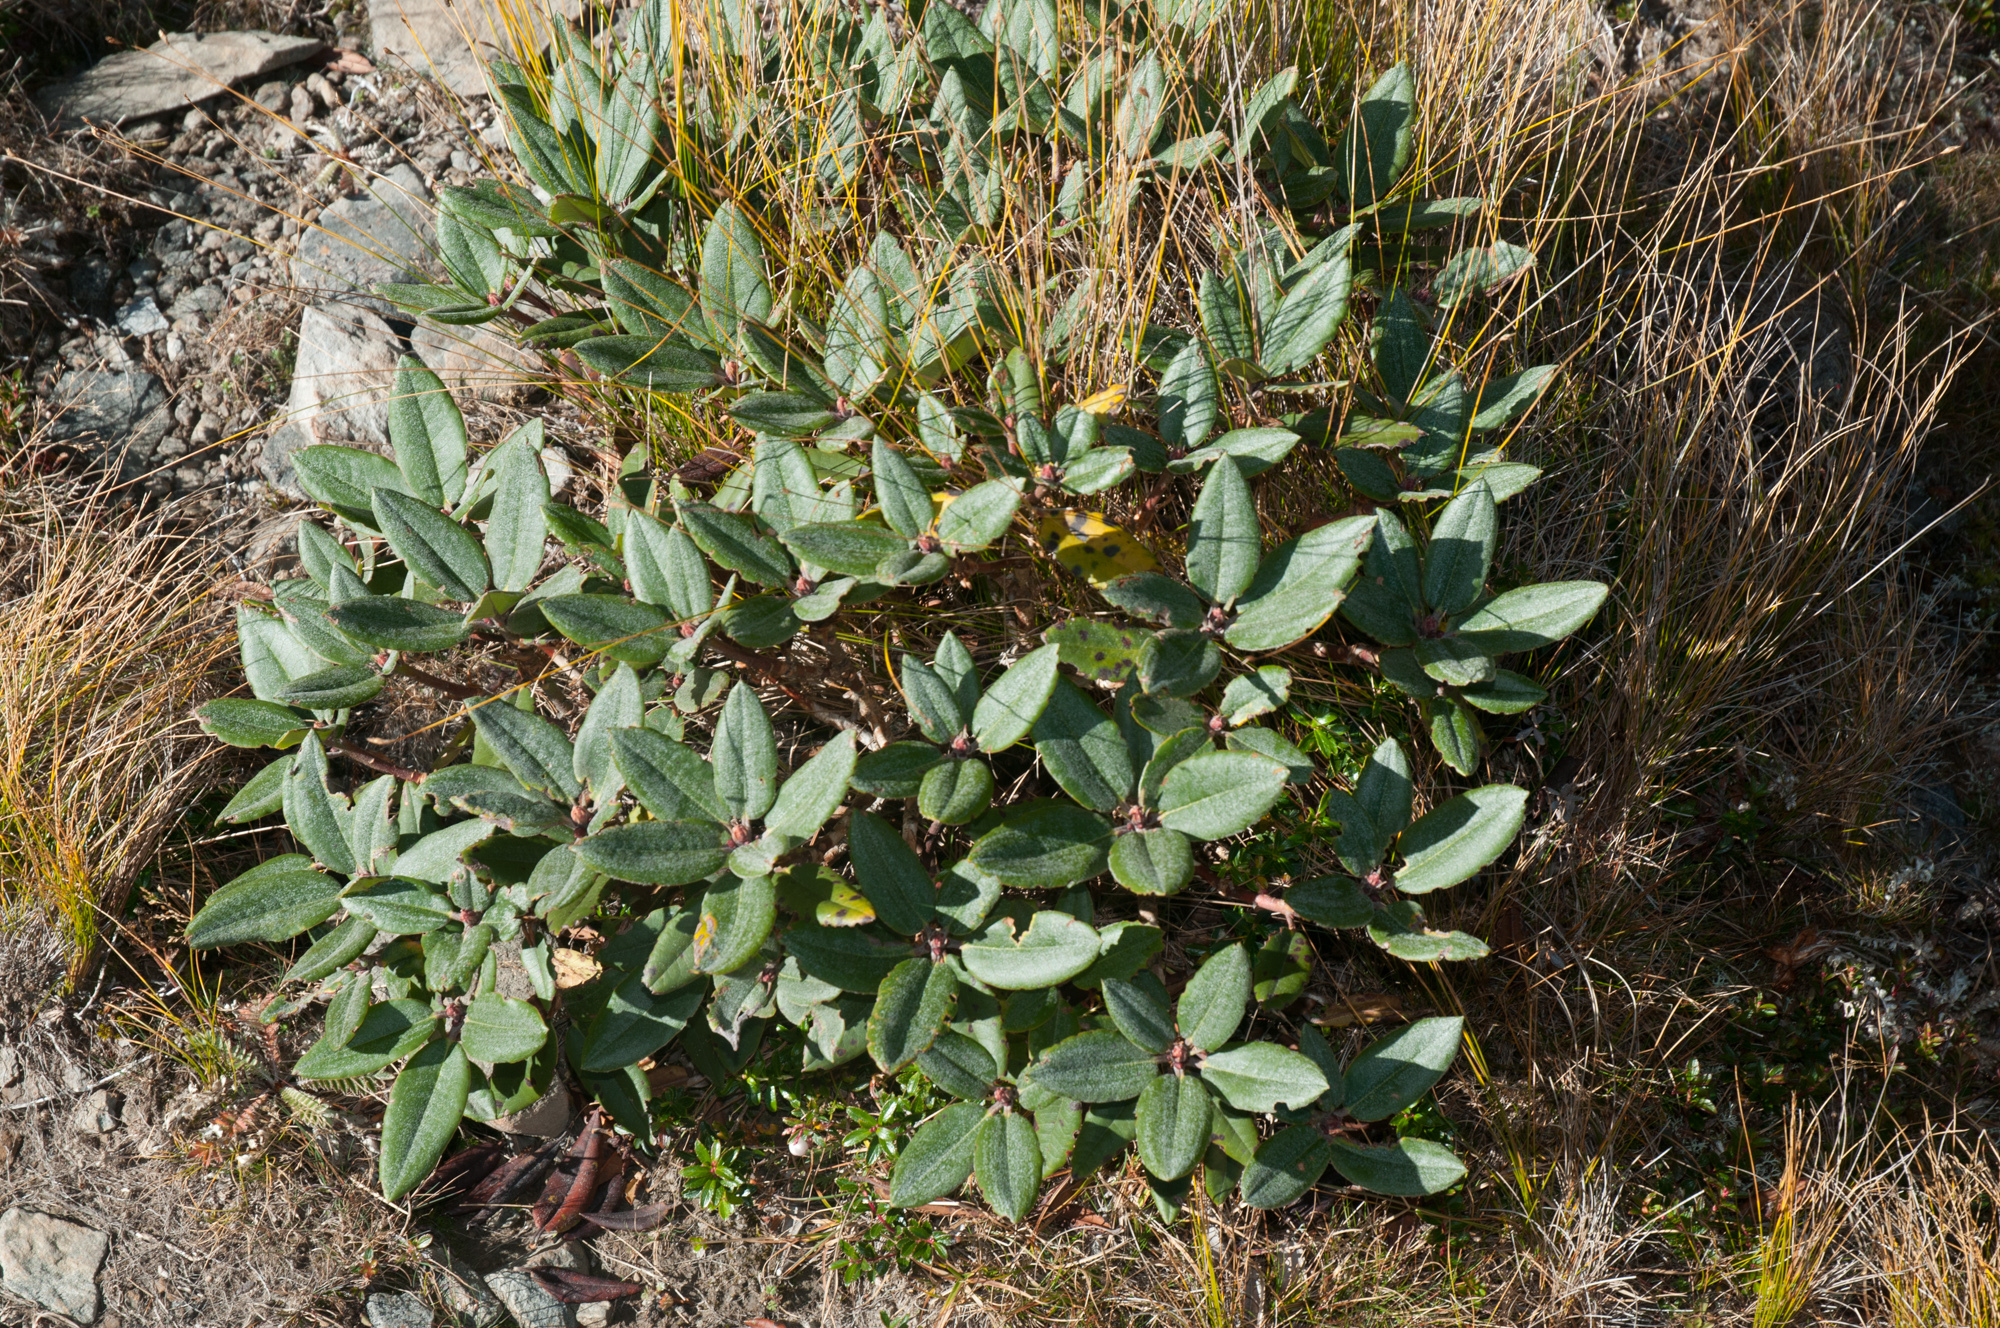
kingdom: Plantae
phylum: Tracheophyta
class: Magnoliopsida
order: Ericales
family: Ericaceae
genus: Rhododendron
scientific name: Rhododendron pseudochrysanthum
